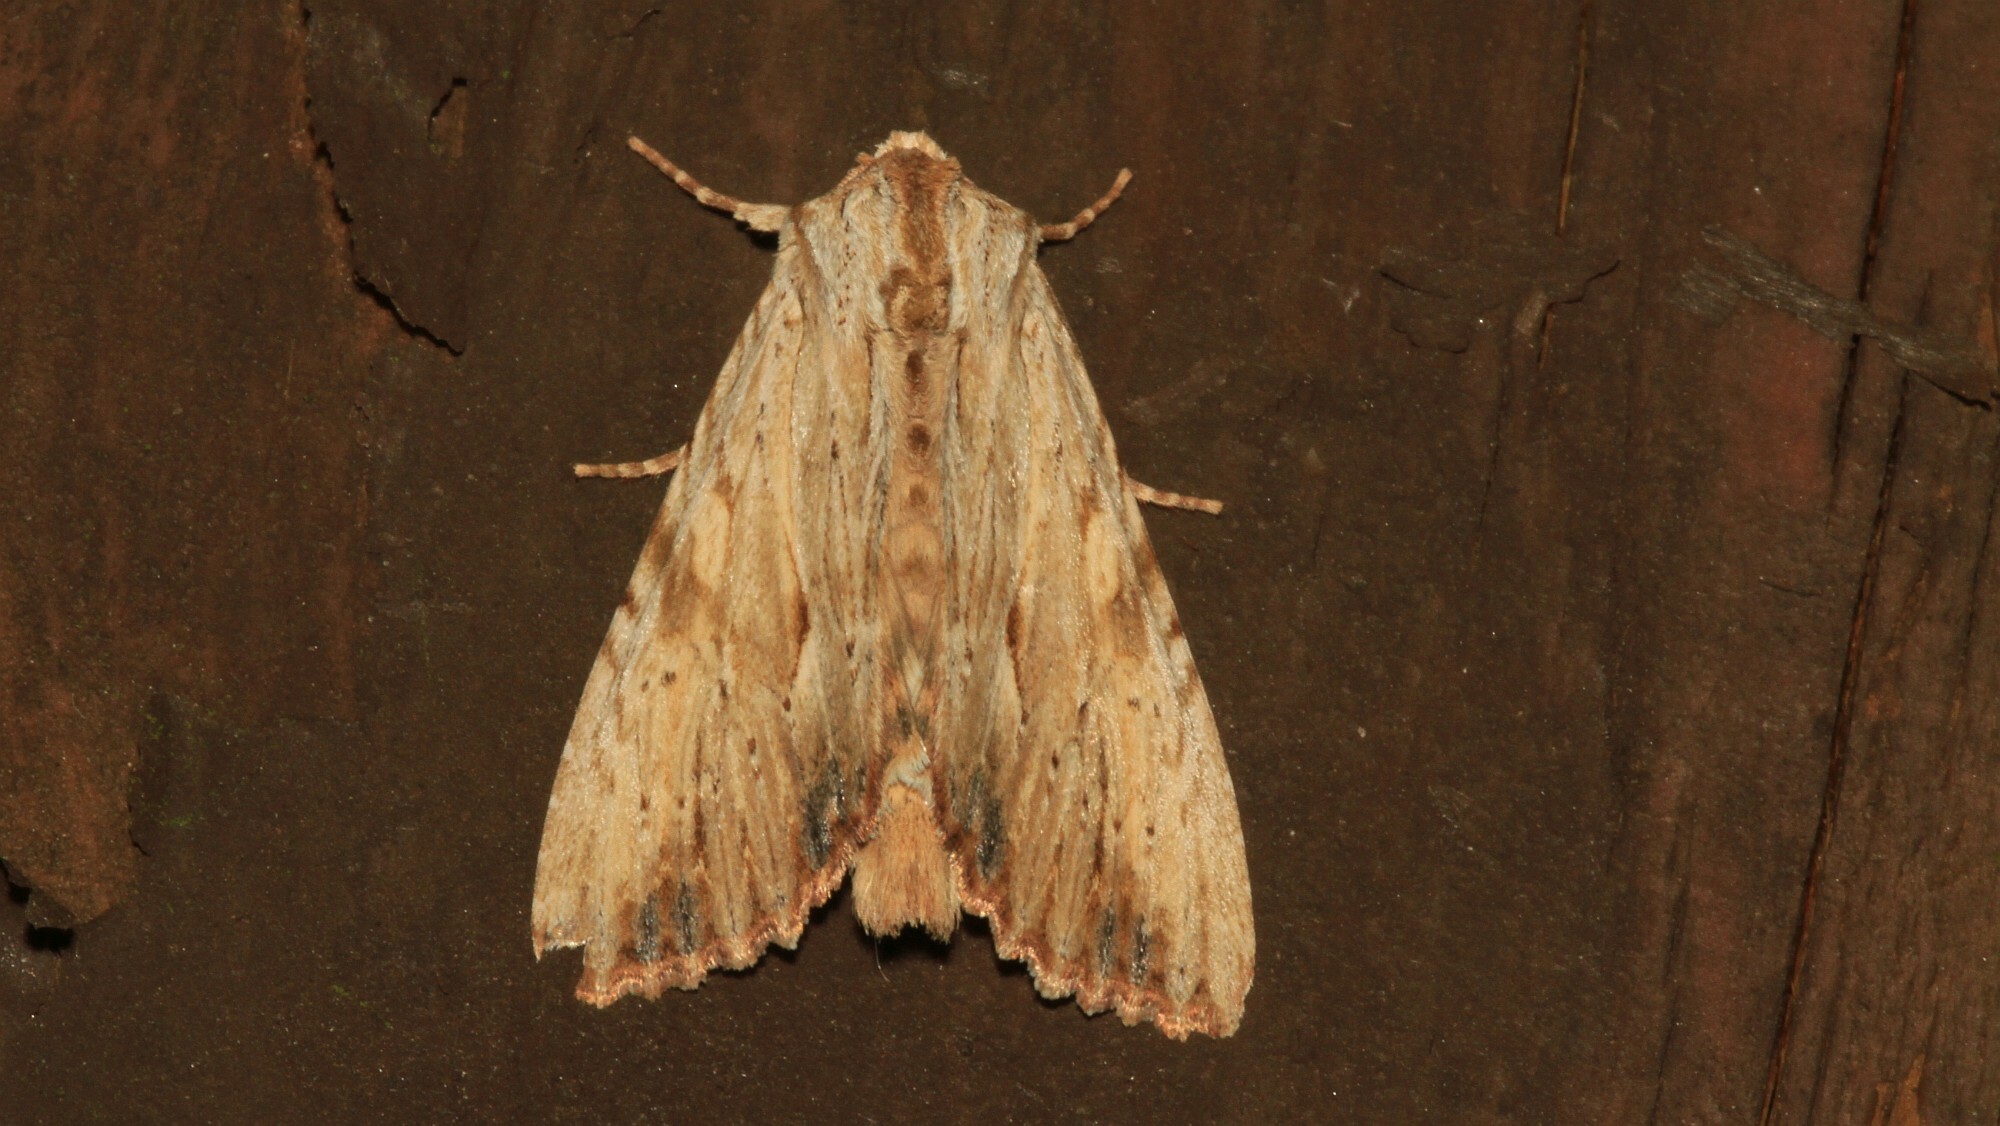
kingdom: Animalia
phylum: Arthropoda
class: Insecta
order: Lepidoptera
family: Noctuidae
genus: Apamea
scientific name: Apamea lithoxylaea
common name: Light arches
